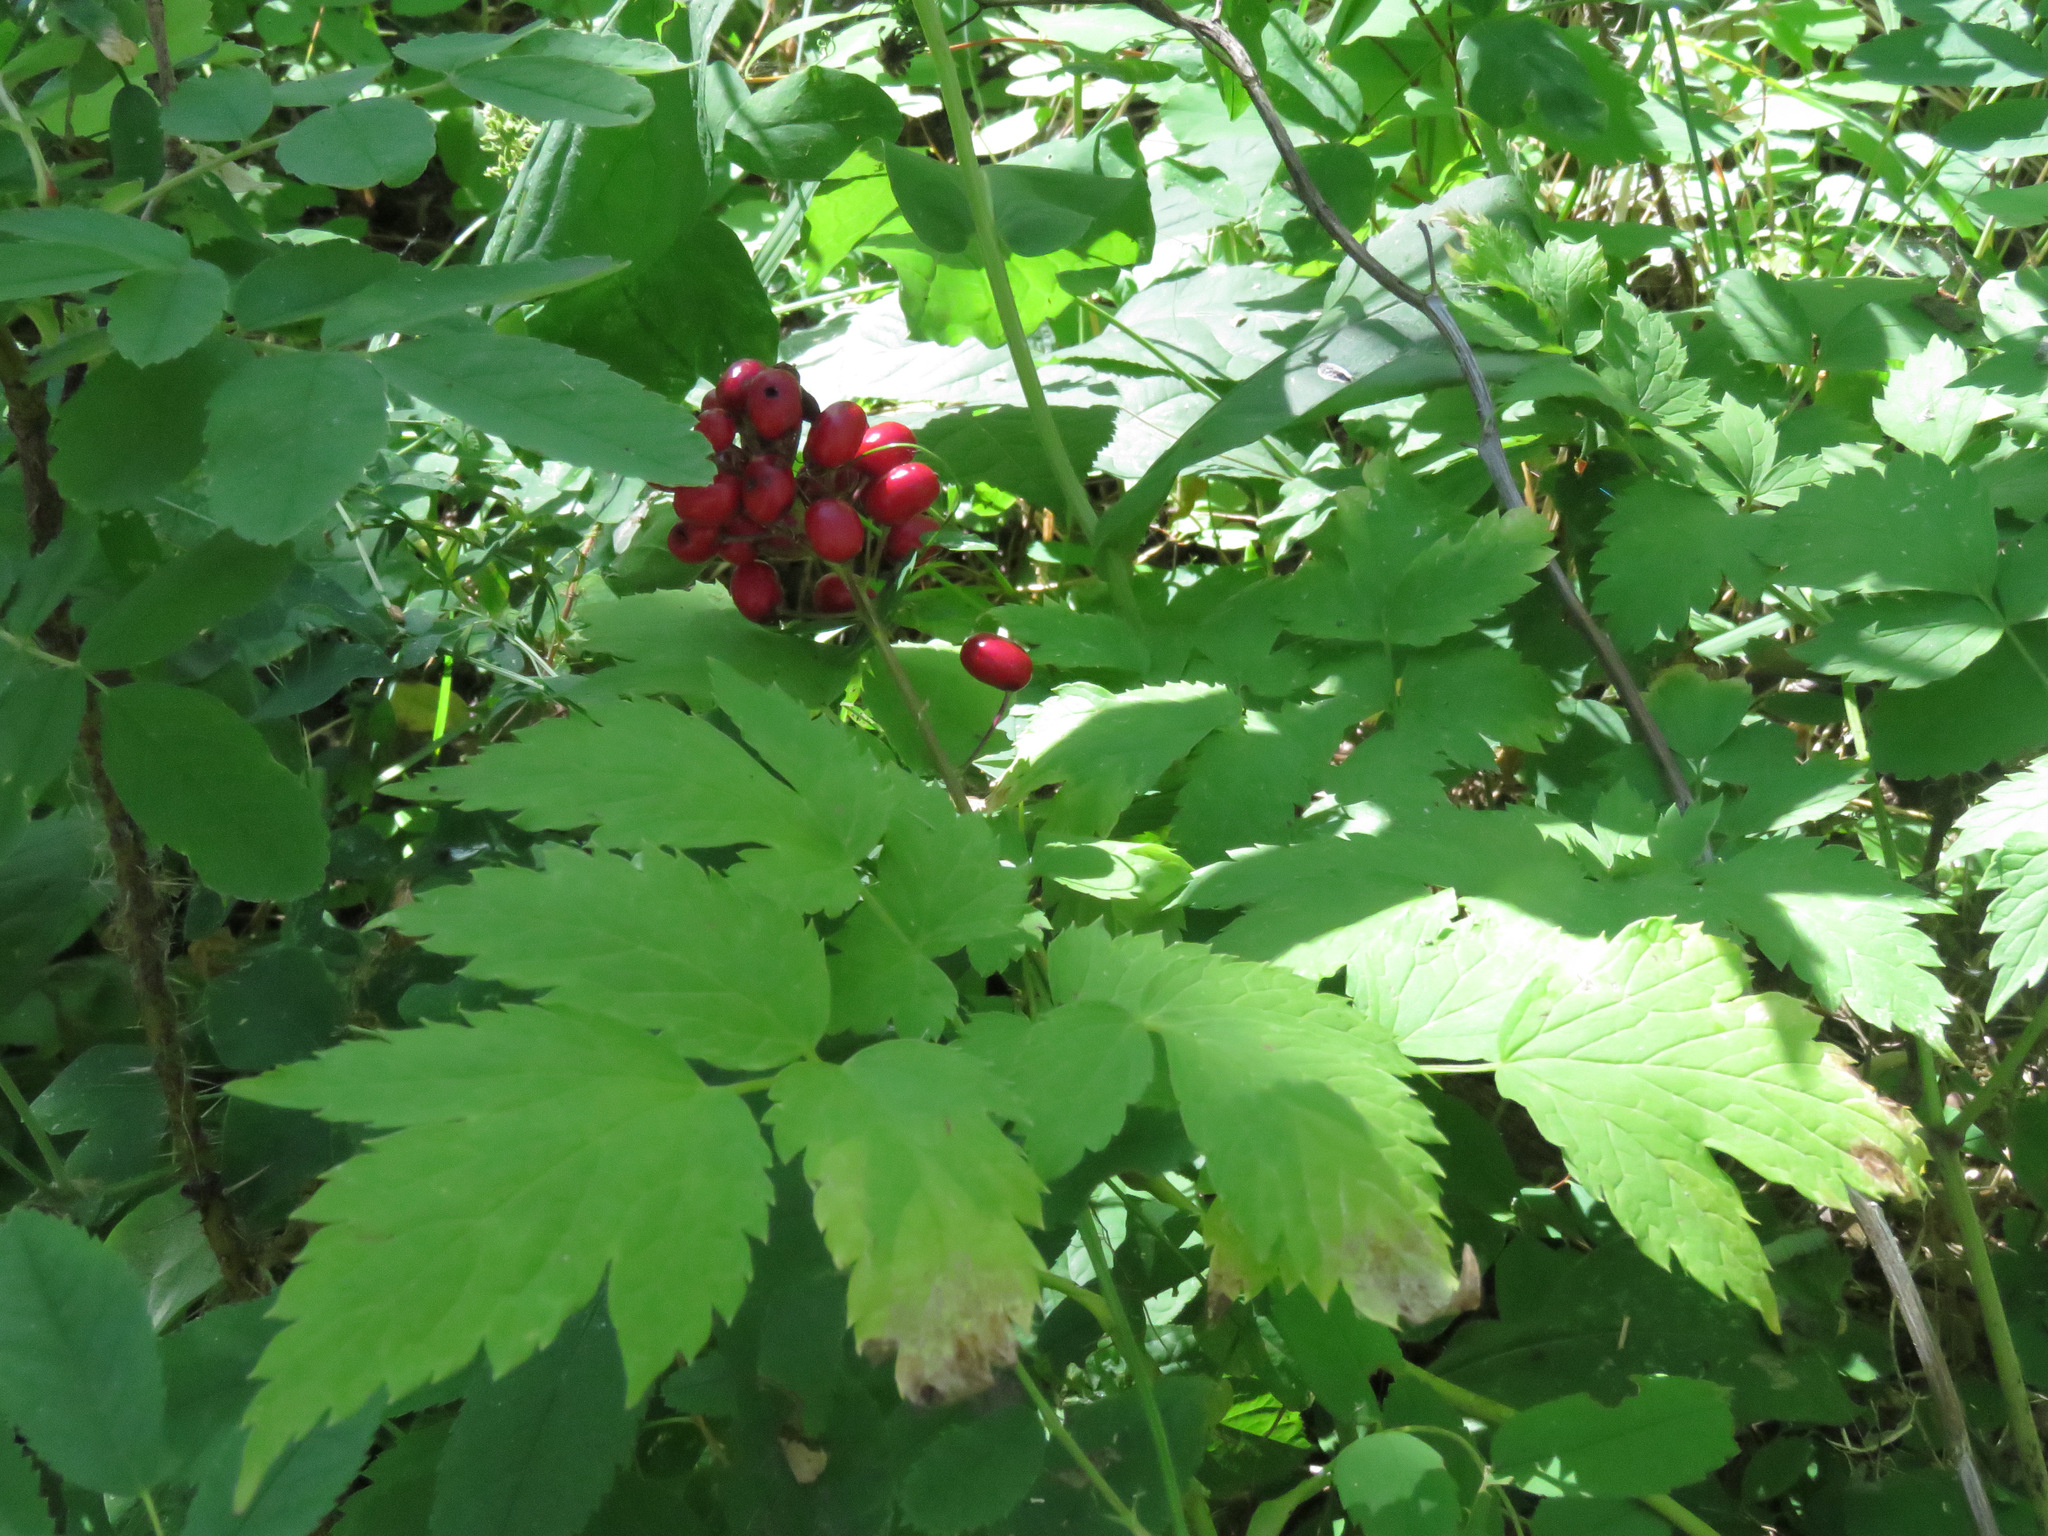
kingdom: Plantae
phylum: Tracheophyta
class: Magnoliopsida
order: Ranunculales
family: Ranunculaceae
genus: Actaea
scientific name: Actaea rubra
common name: Red baneberry
